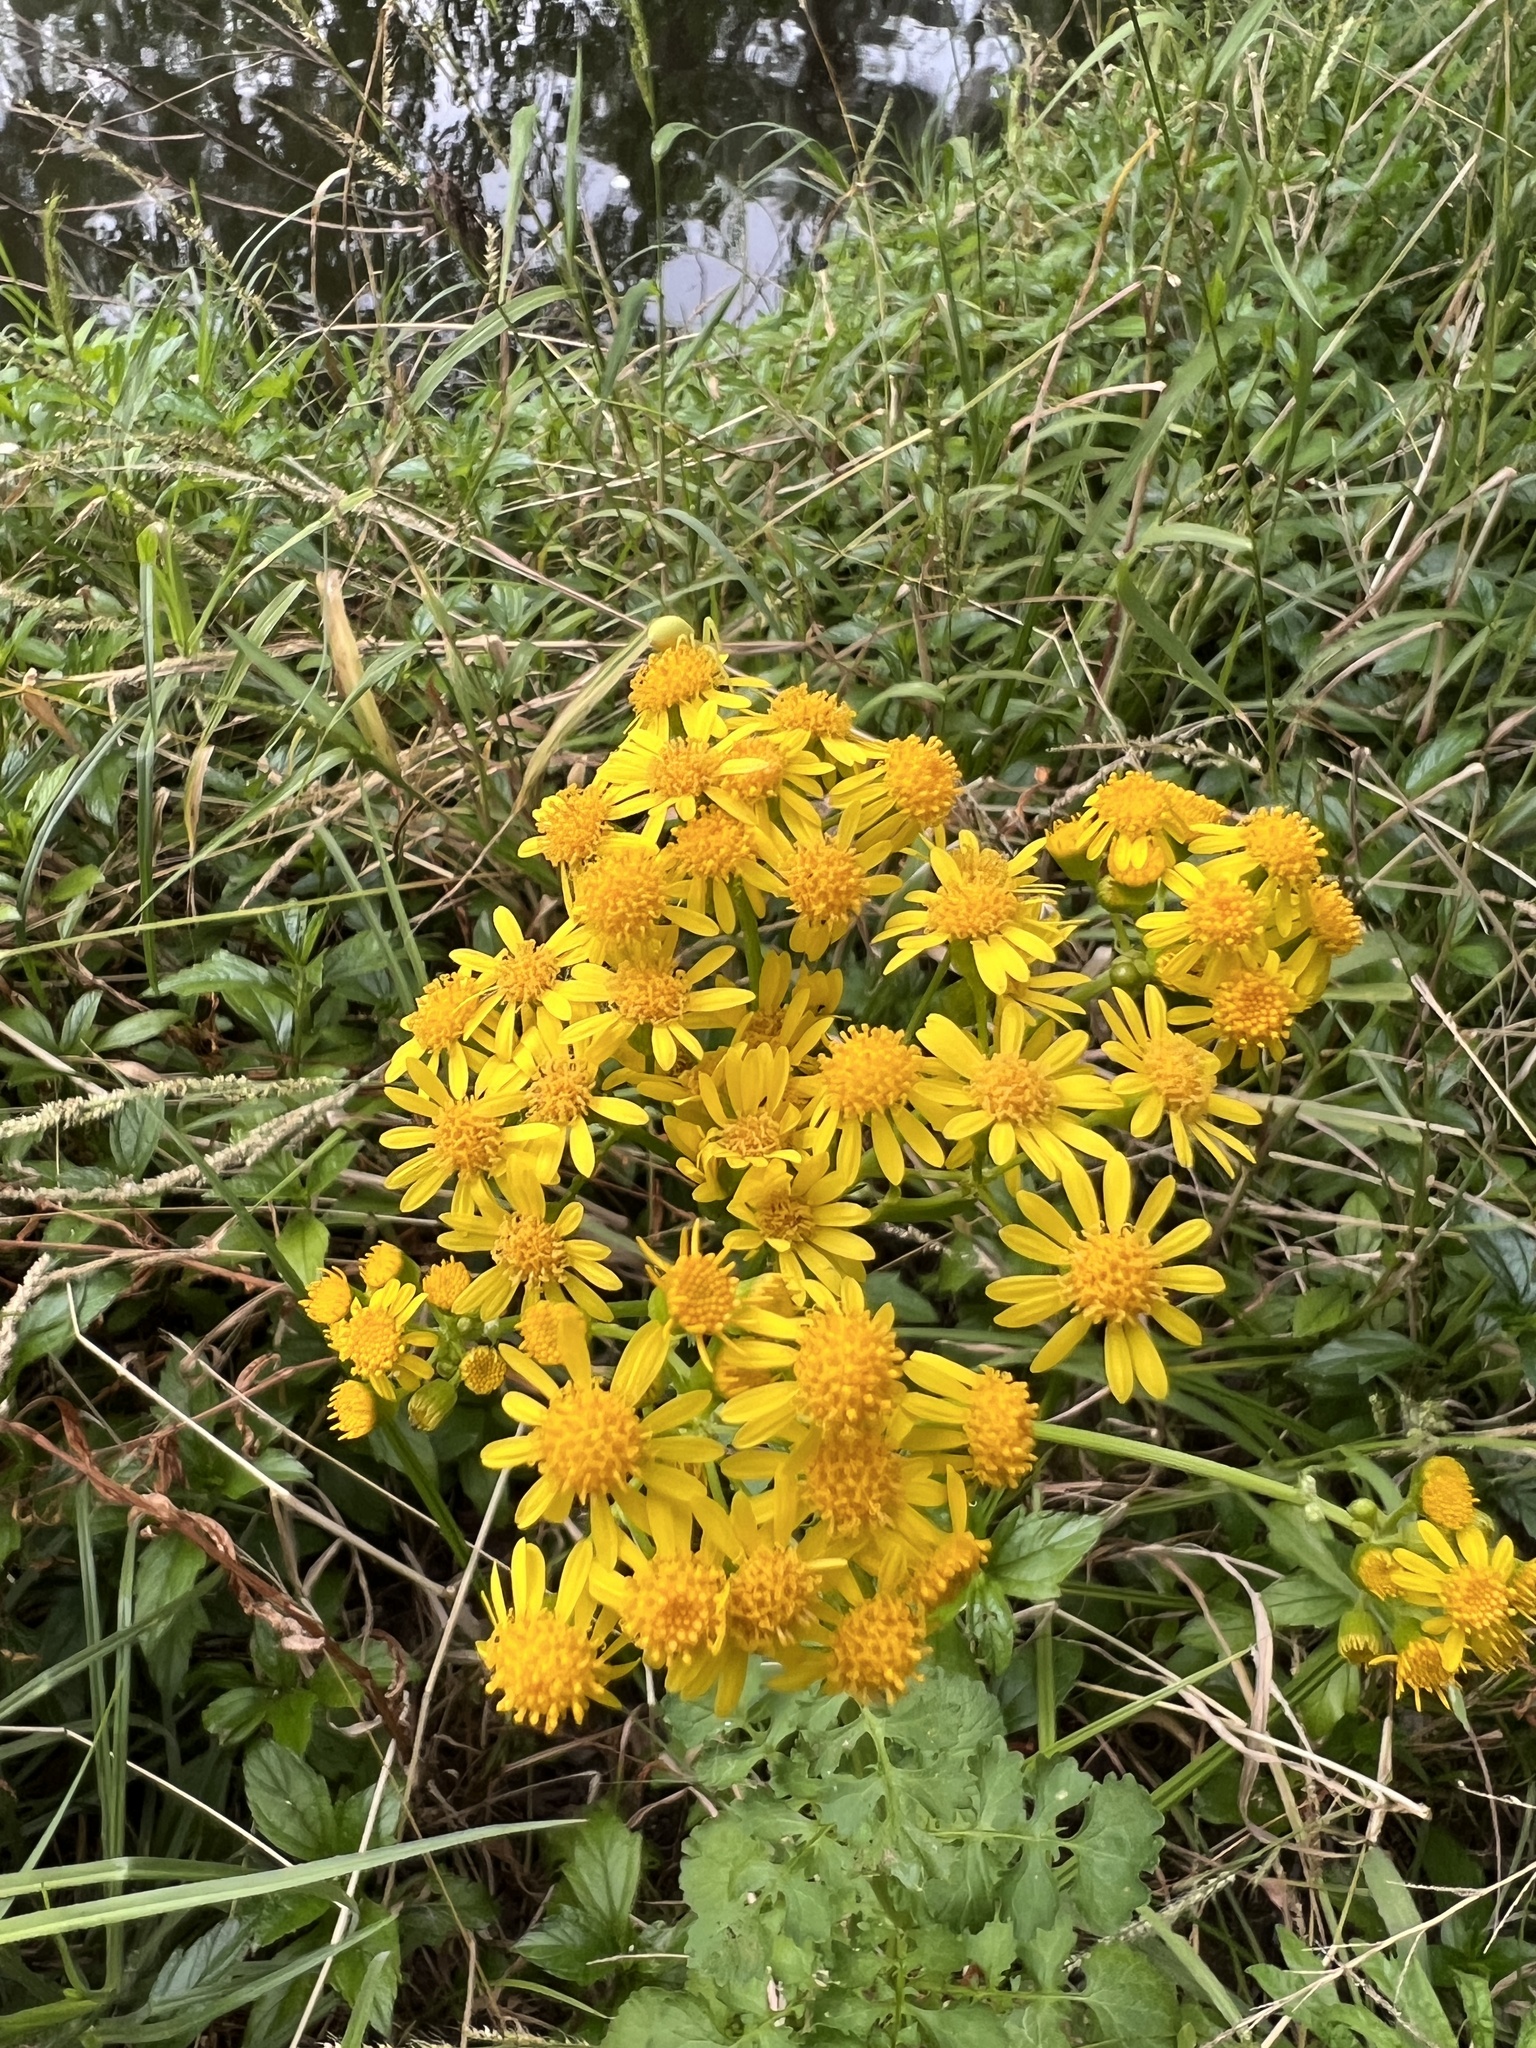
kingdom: Plantae
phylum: Tracheophyta
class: Magnoliopsida
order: Asterales
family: Asteraceae
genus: Packera
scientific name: Packera glabella
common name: Butterweed
